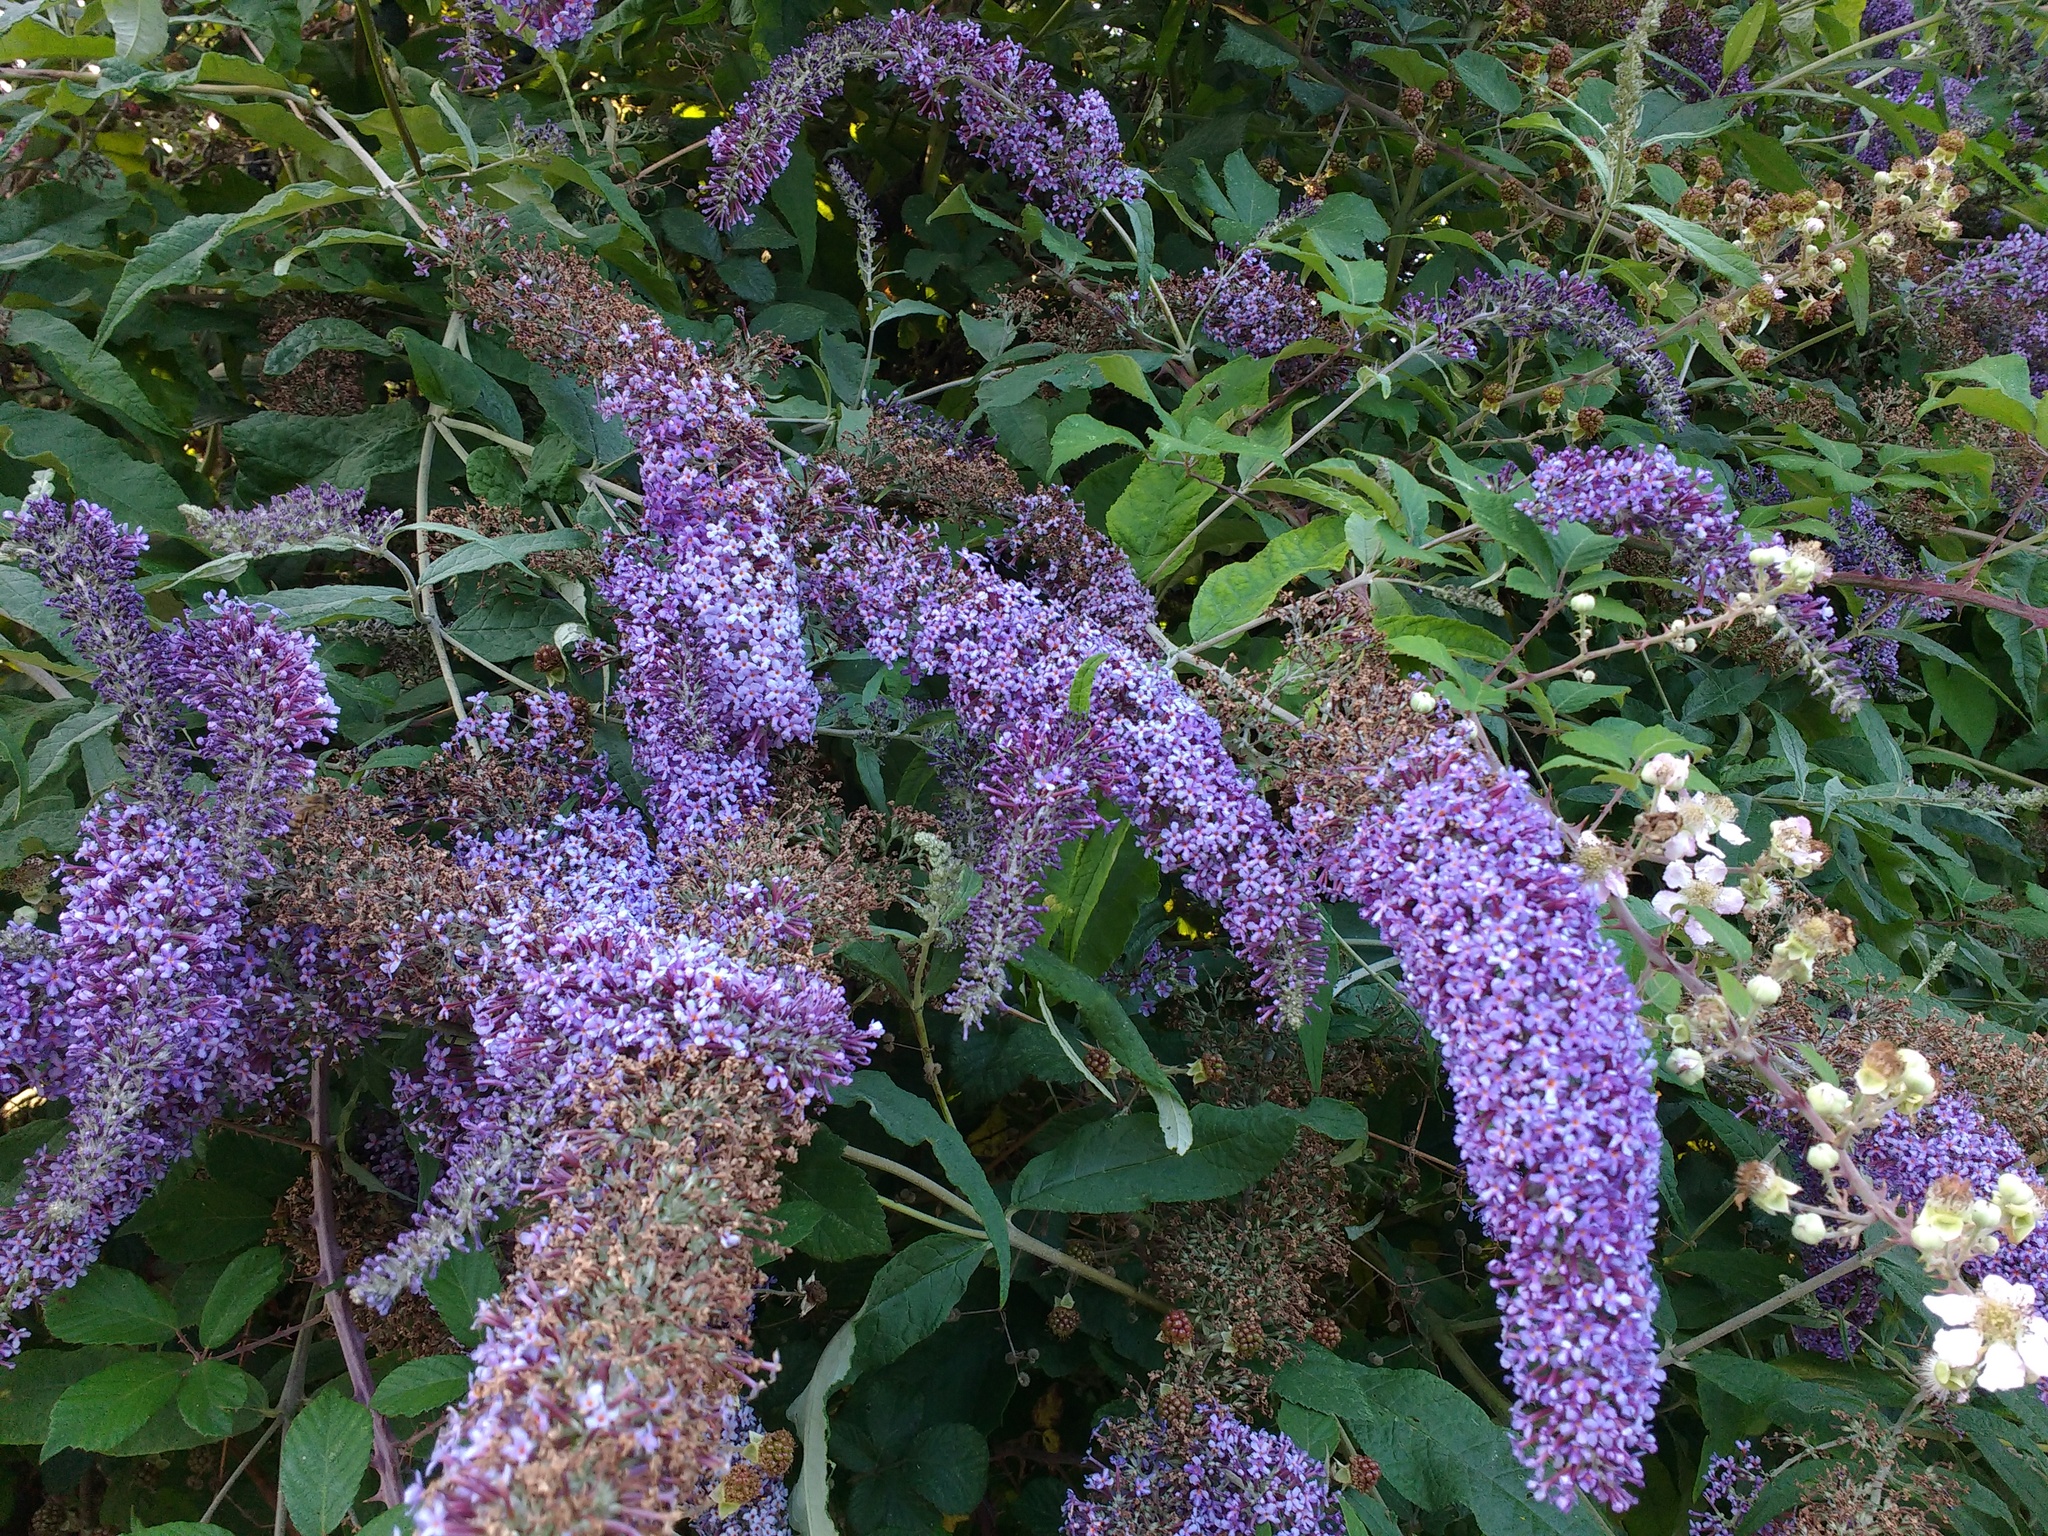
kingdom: Plantae
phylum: Tracheophyta
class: Magnoliopsida
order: Lamiales
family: Scrophulariaceae
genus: Buddleja
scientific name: Buddleja davidii
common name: Butterfly-bush
